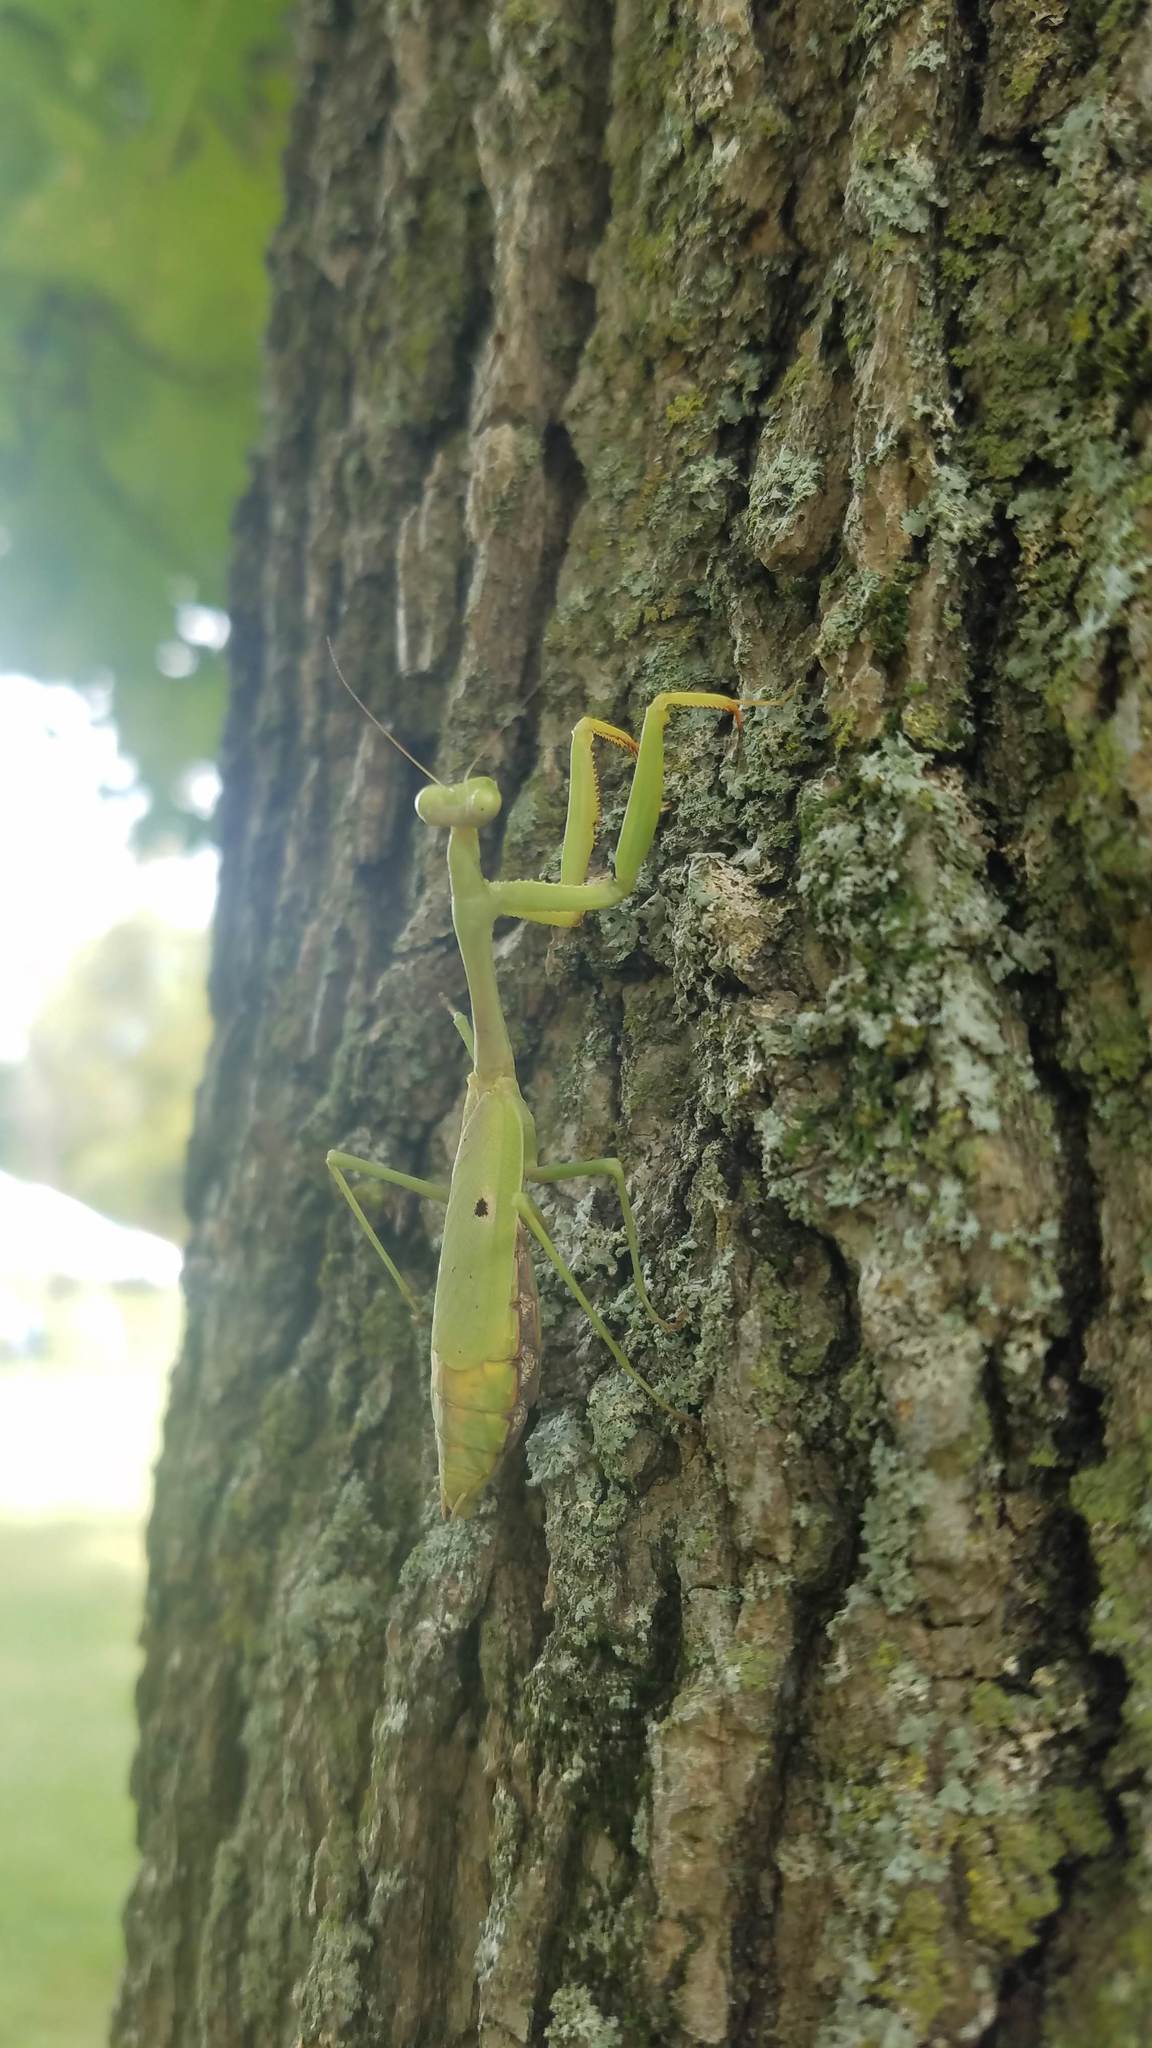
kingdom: Animalia
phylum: Arthropoda
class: Insecta
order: Mantodea
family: Mantidae
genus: Stagmomantis
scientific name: Stagmomantis carolina
